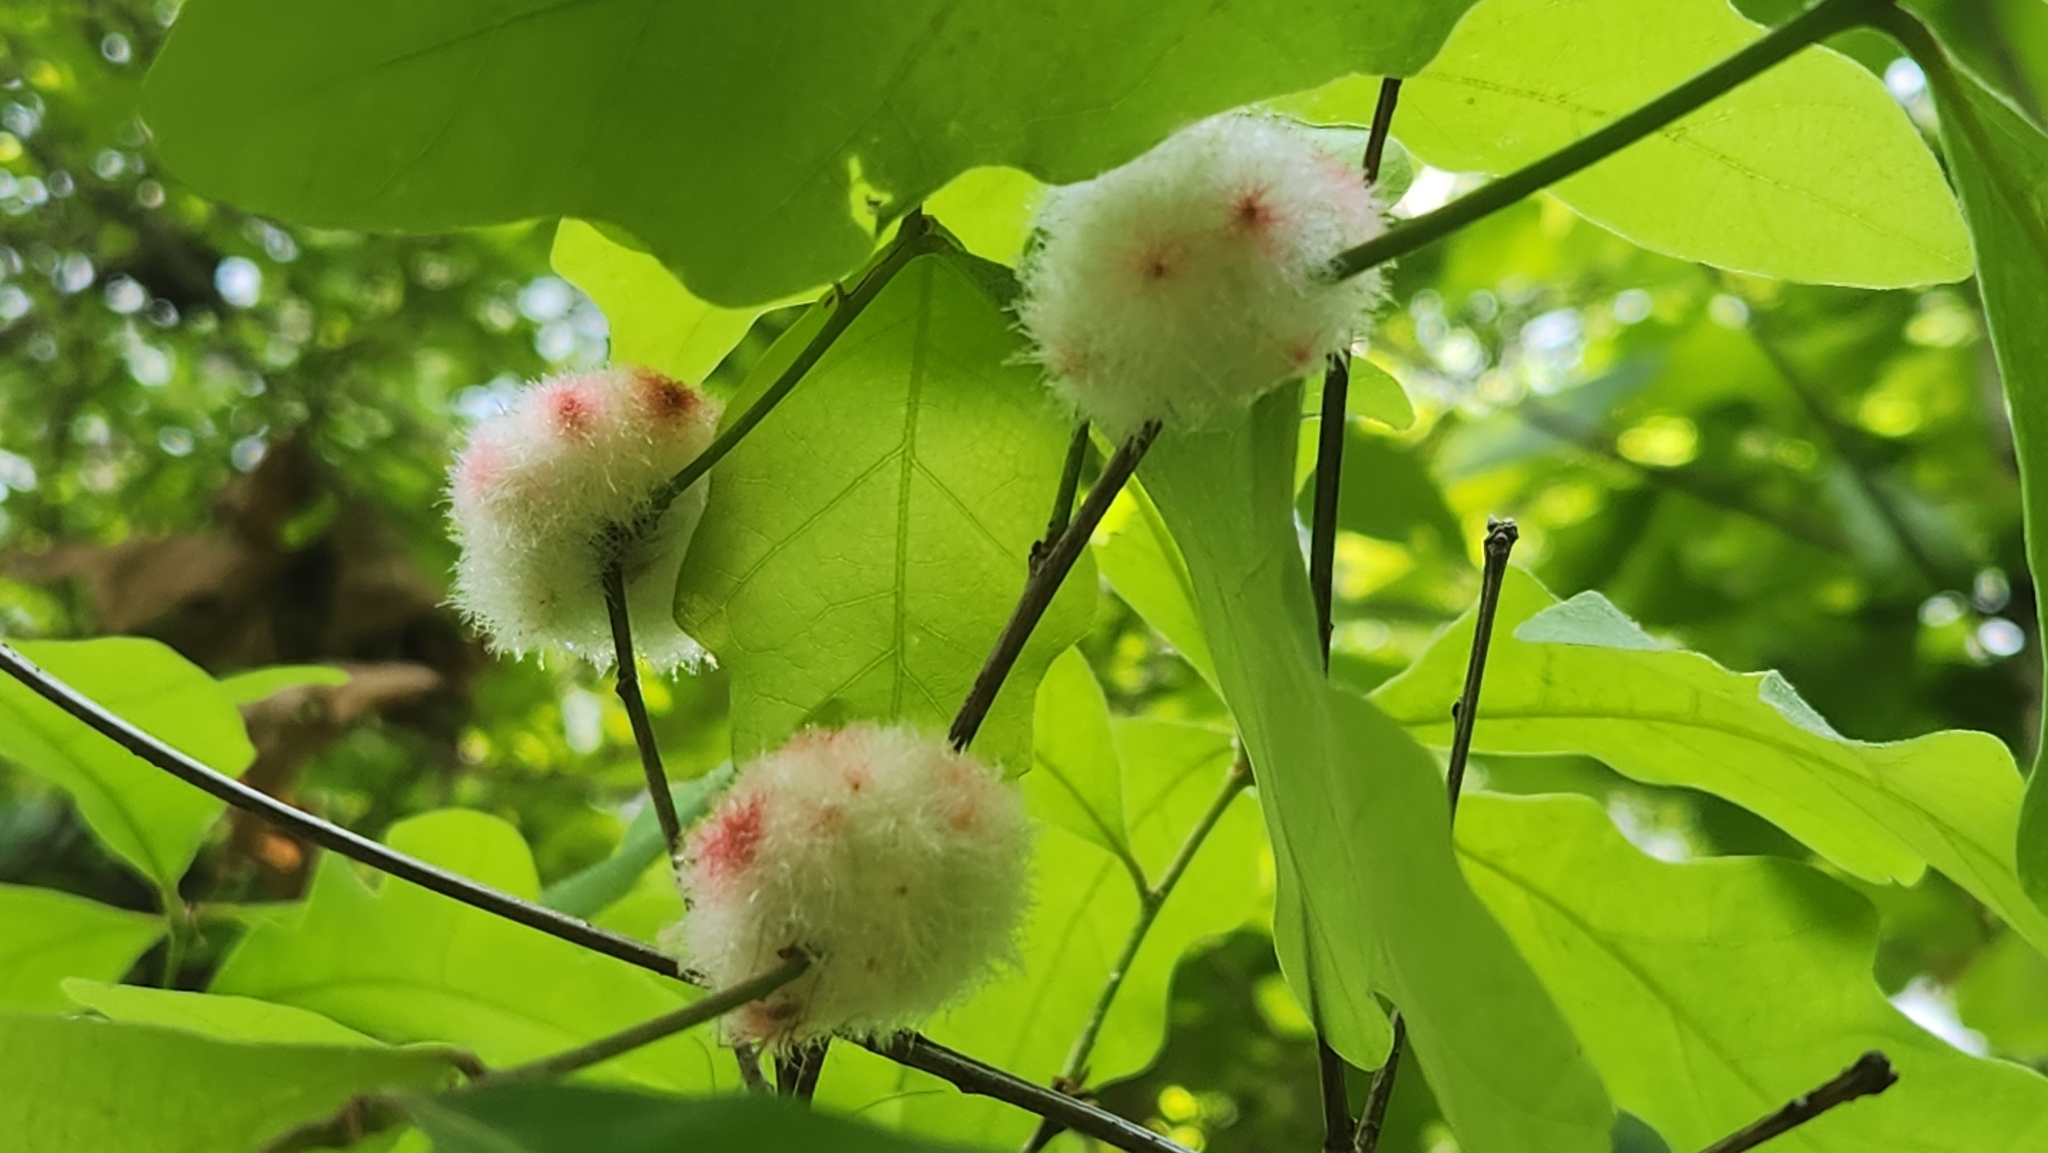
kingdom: Animalia
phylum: Arthropoda
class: Insecta
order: Hymenoptera
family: Cynipidae
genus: Callirhytis
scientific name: Callirhytis
